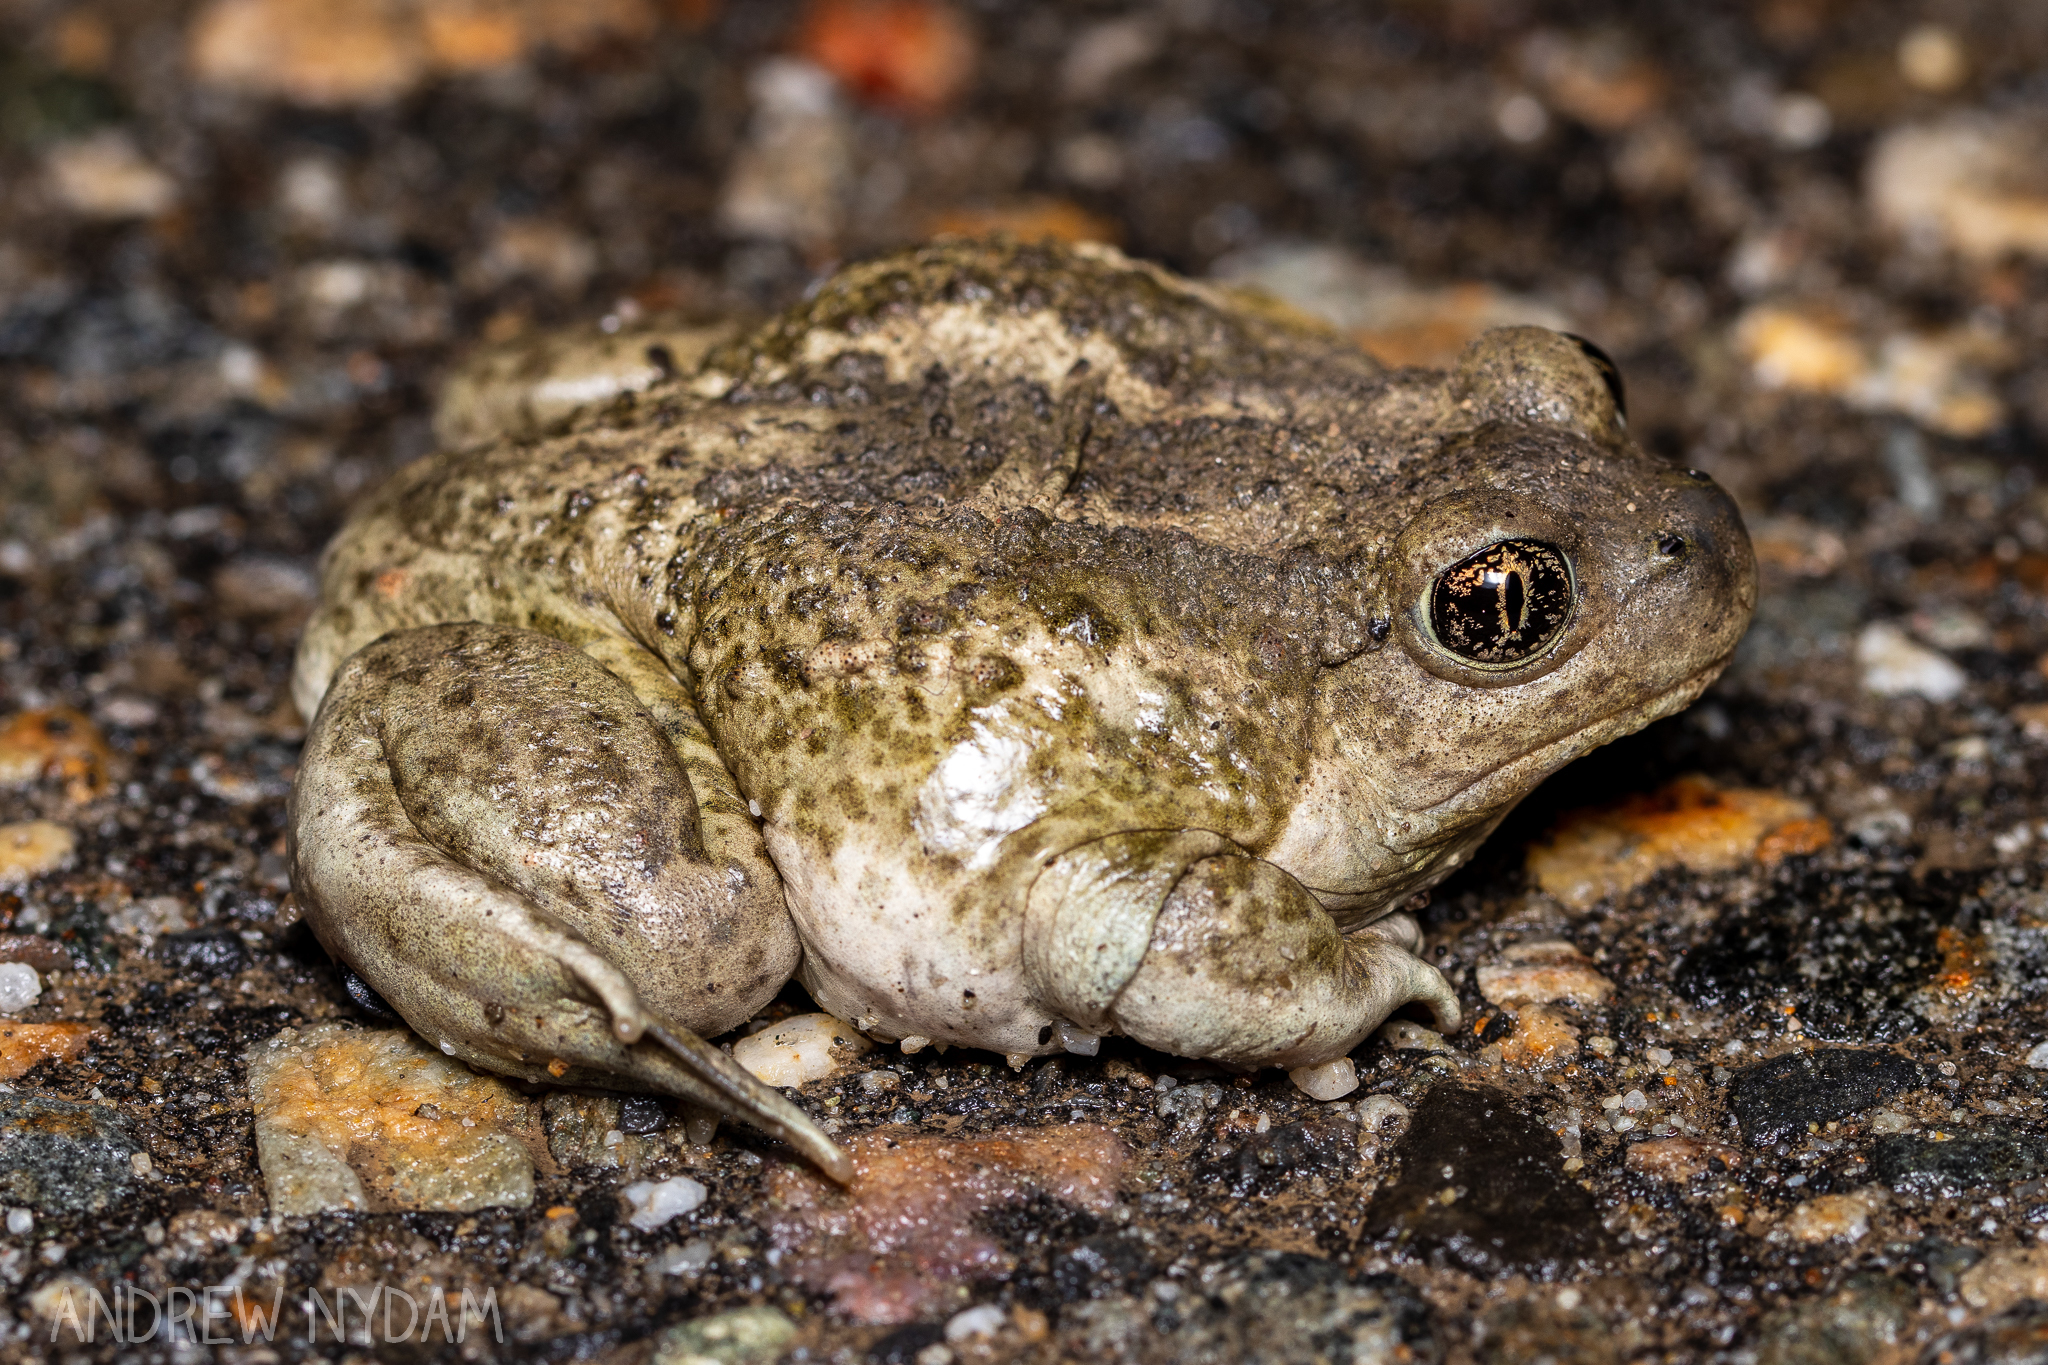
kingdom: Animalia
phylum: Chordata
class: Amphibia
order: Anura
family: Scaphiopodidae
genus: Spea
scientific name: Spea intermontana
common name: Great basin spadefoot
